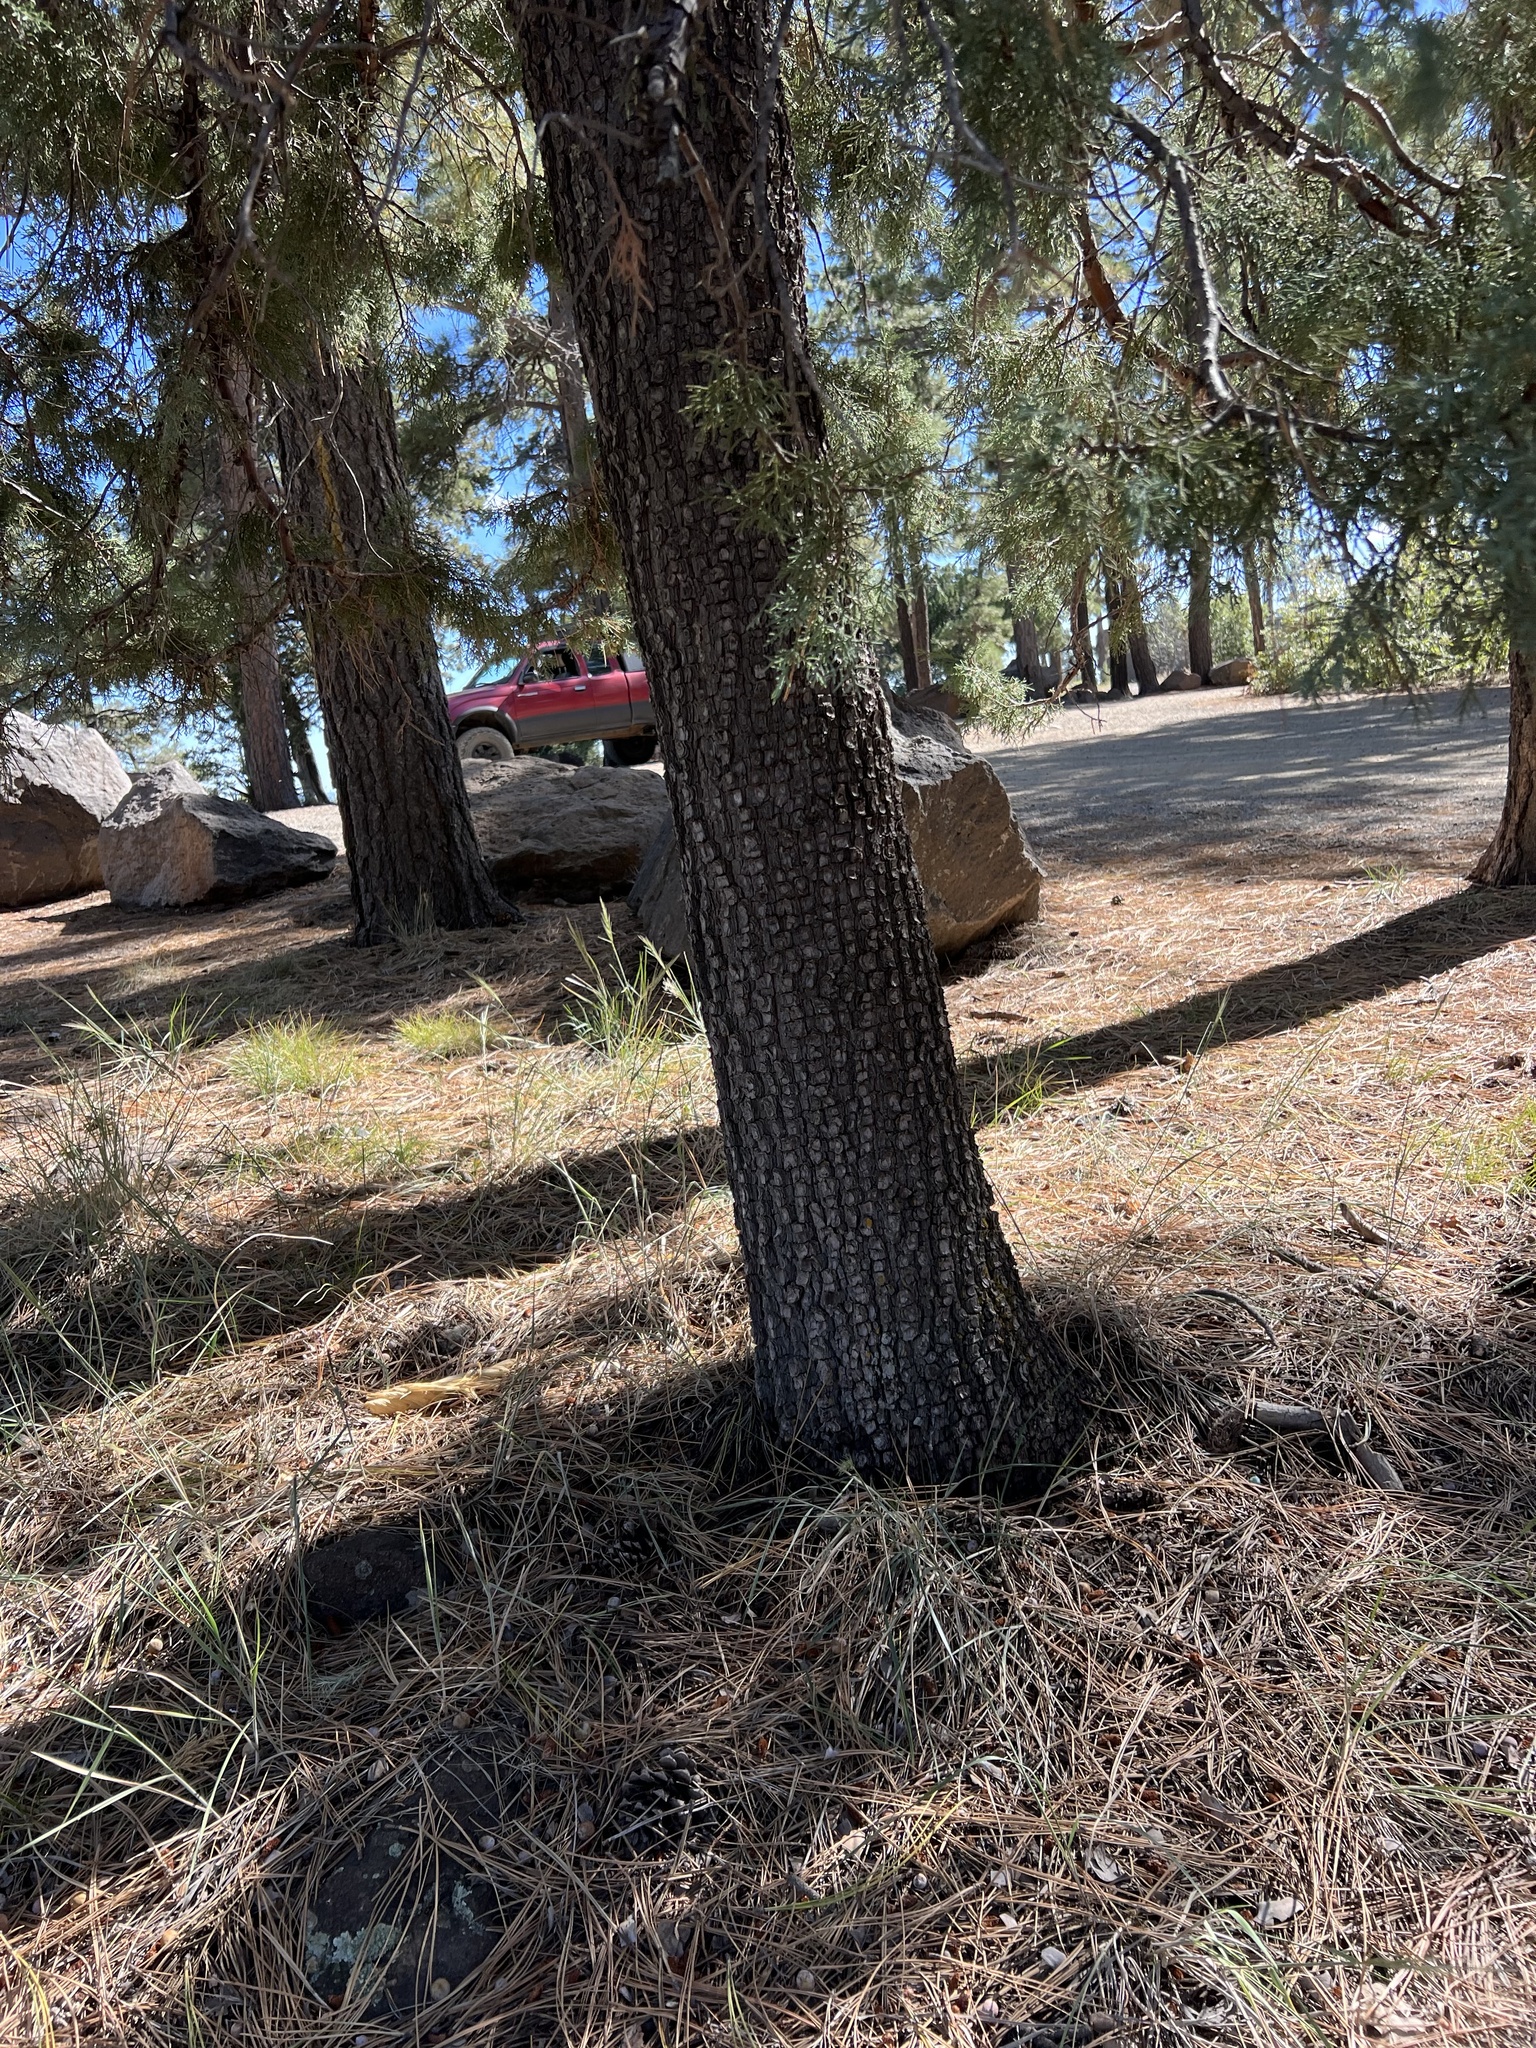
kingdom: Plantae
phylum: Tracheophyta
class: Pinopsida
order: Pinales
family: Cupressaceae
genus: Juniperus
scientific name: Juniperus deppeana
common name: Alligator juniper
